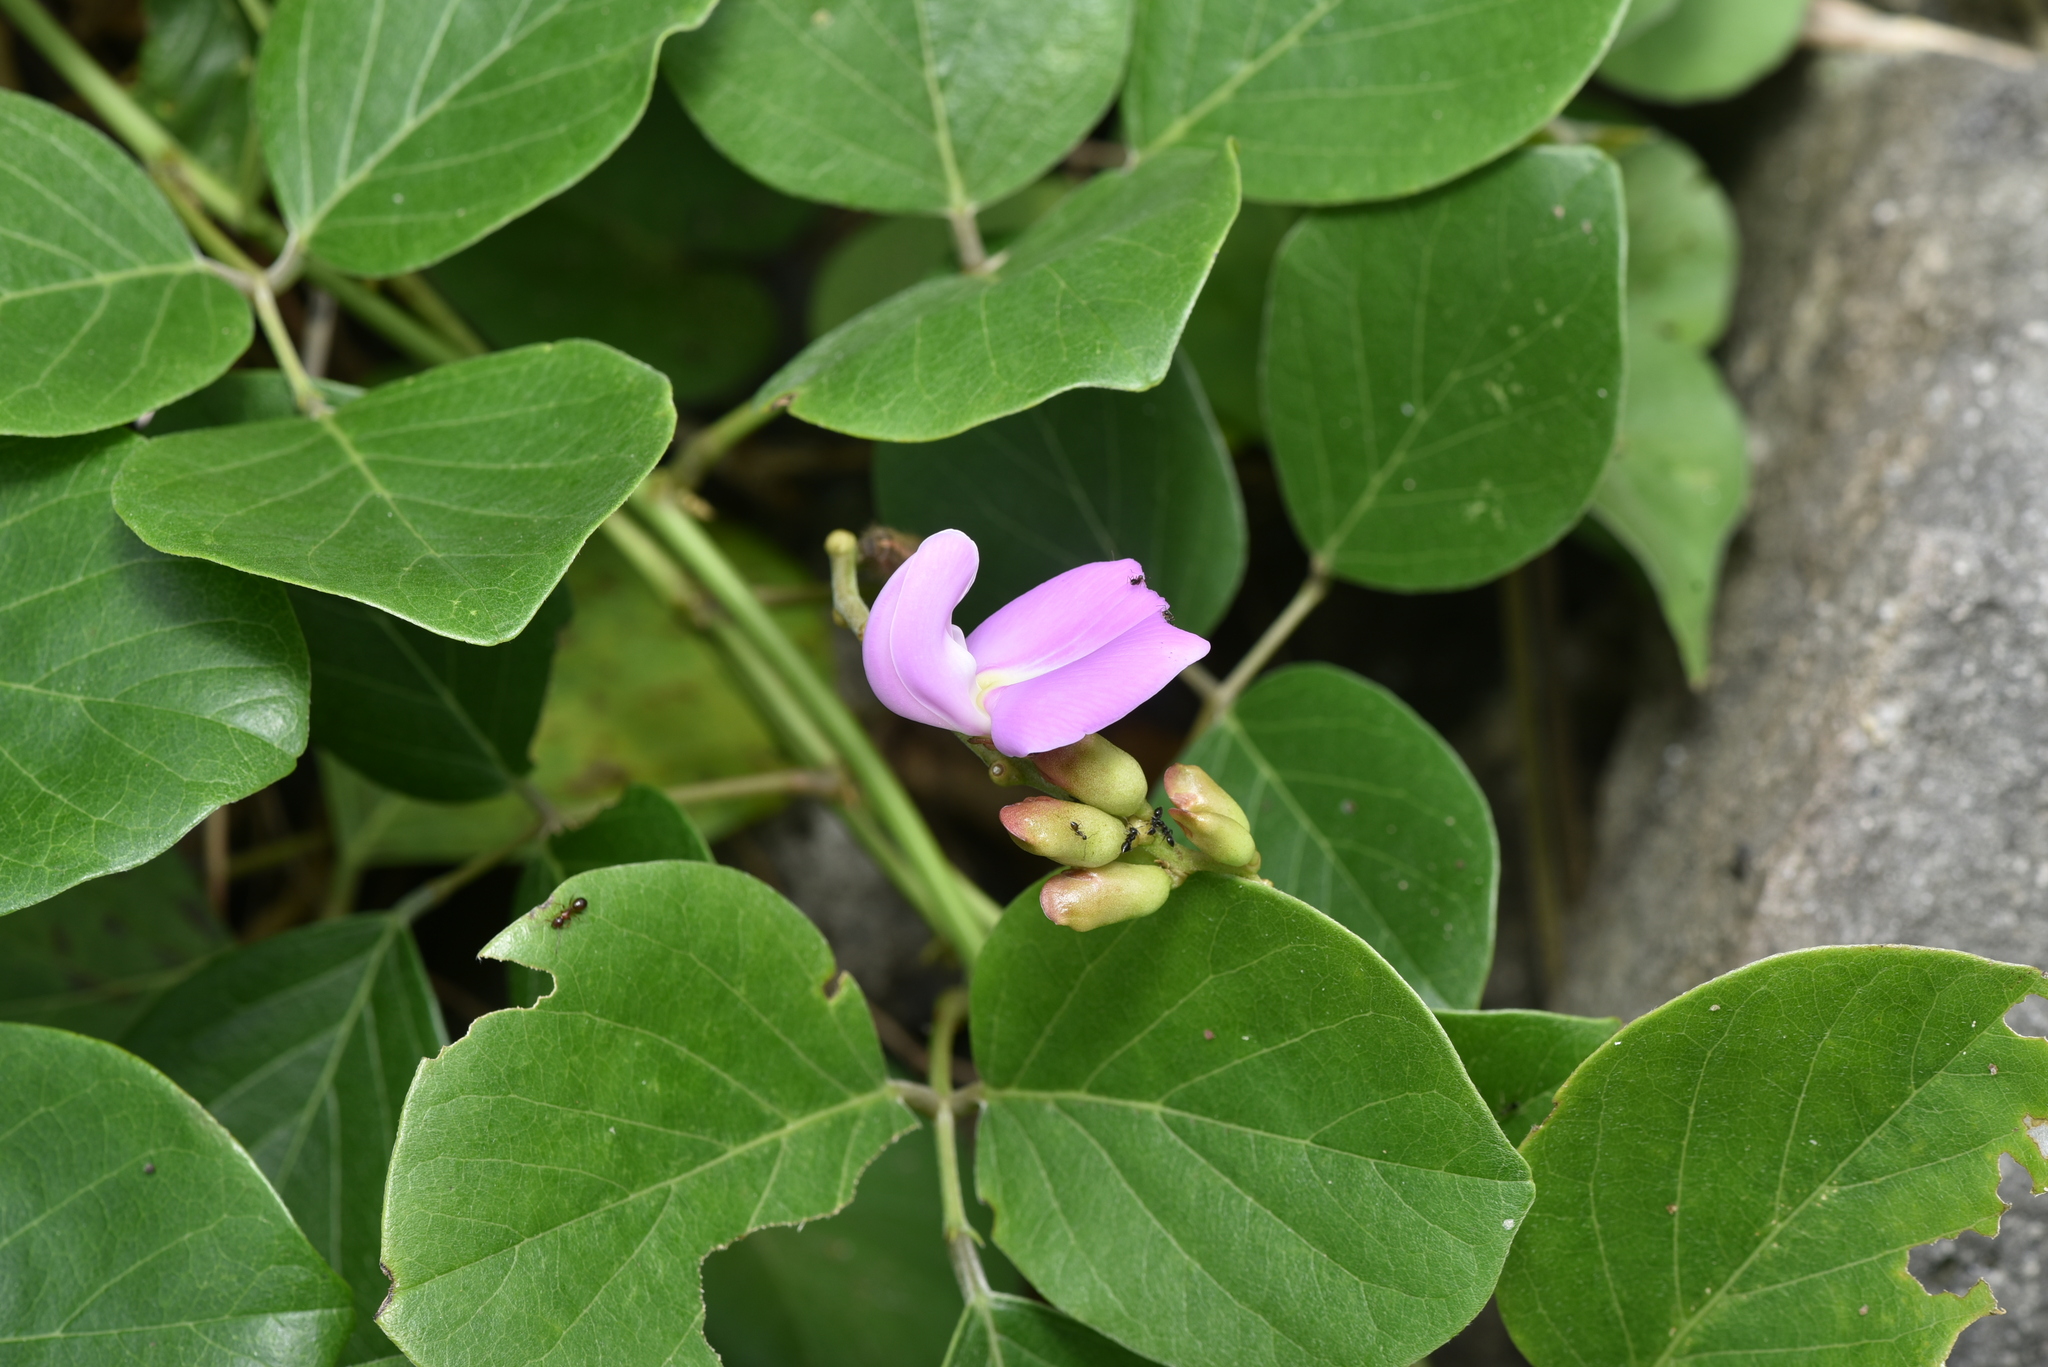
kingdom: Plantae
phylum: Tracheophyta
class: Magnoliopsida
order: Fabales
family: Fabaceae
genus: Canavalia
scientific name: Canavalia lineata
